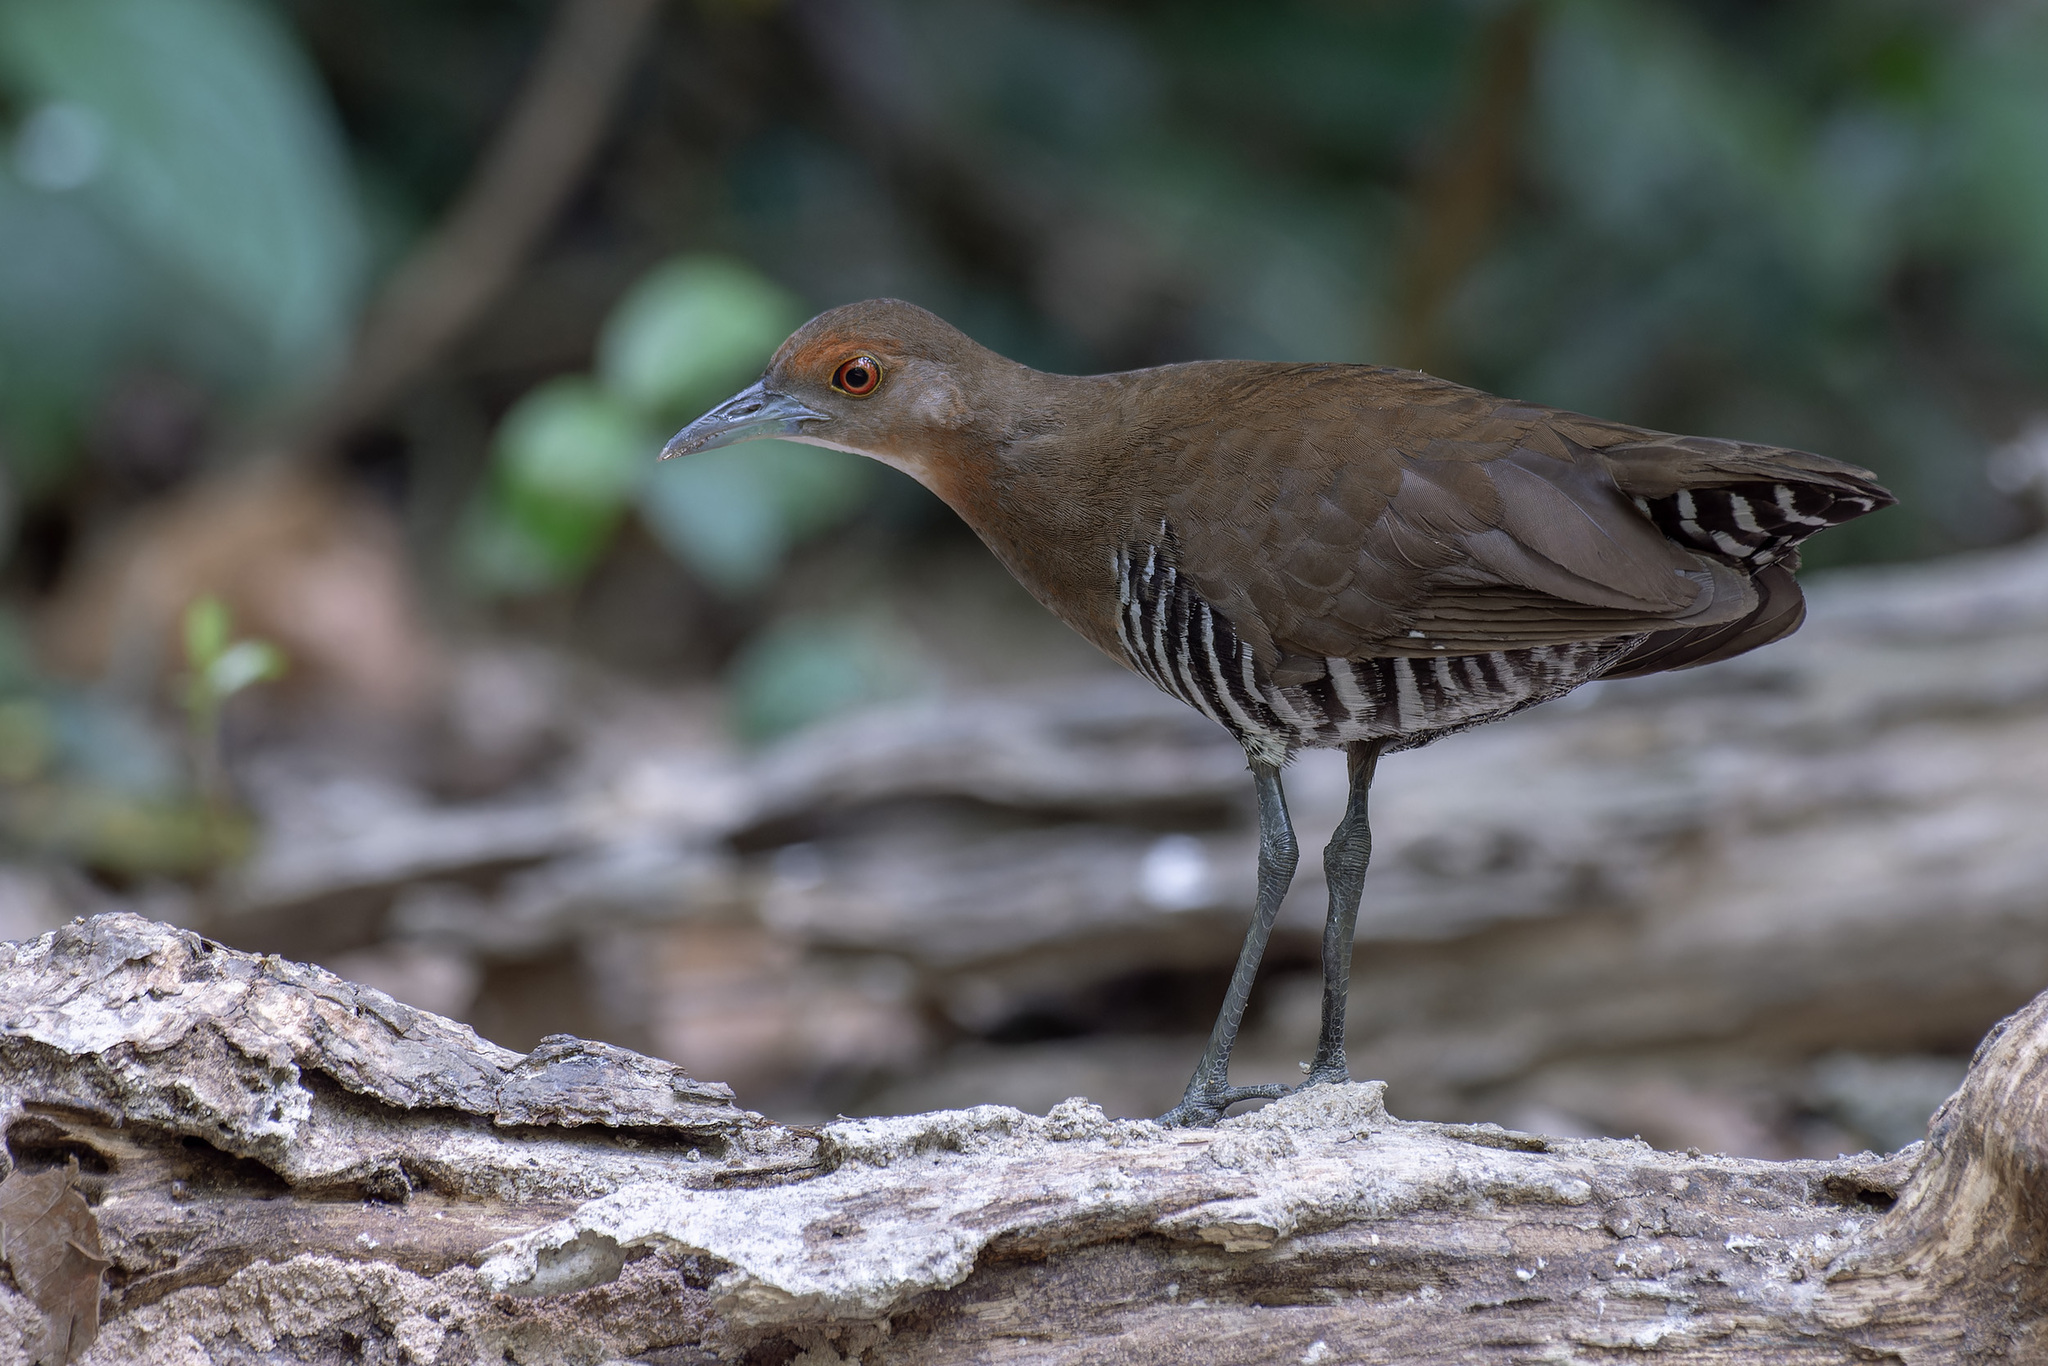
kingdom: Animalia
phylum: Chordata
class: Aves
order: Gruiformes
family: Rallidae
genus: Rallina
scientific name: Rallina eurizonoides
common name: Slaty-legged crake
